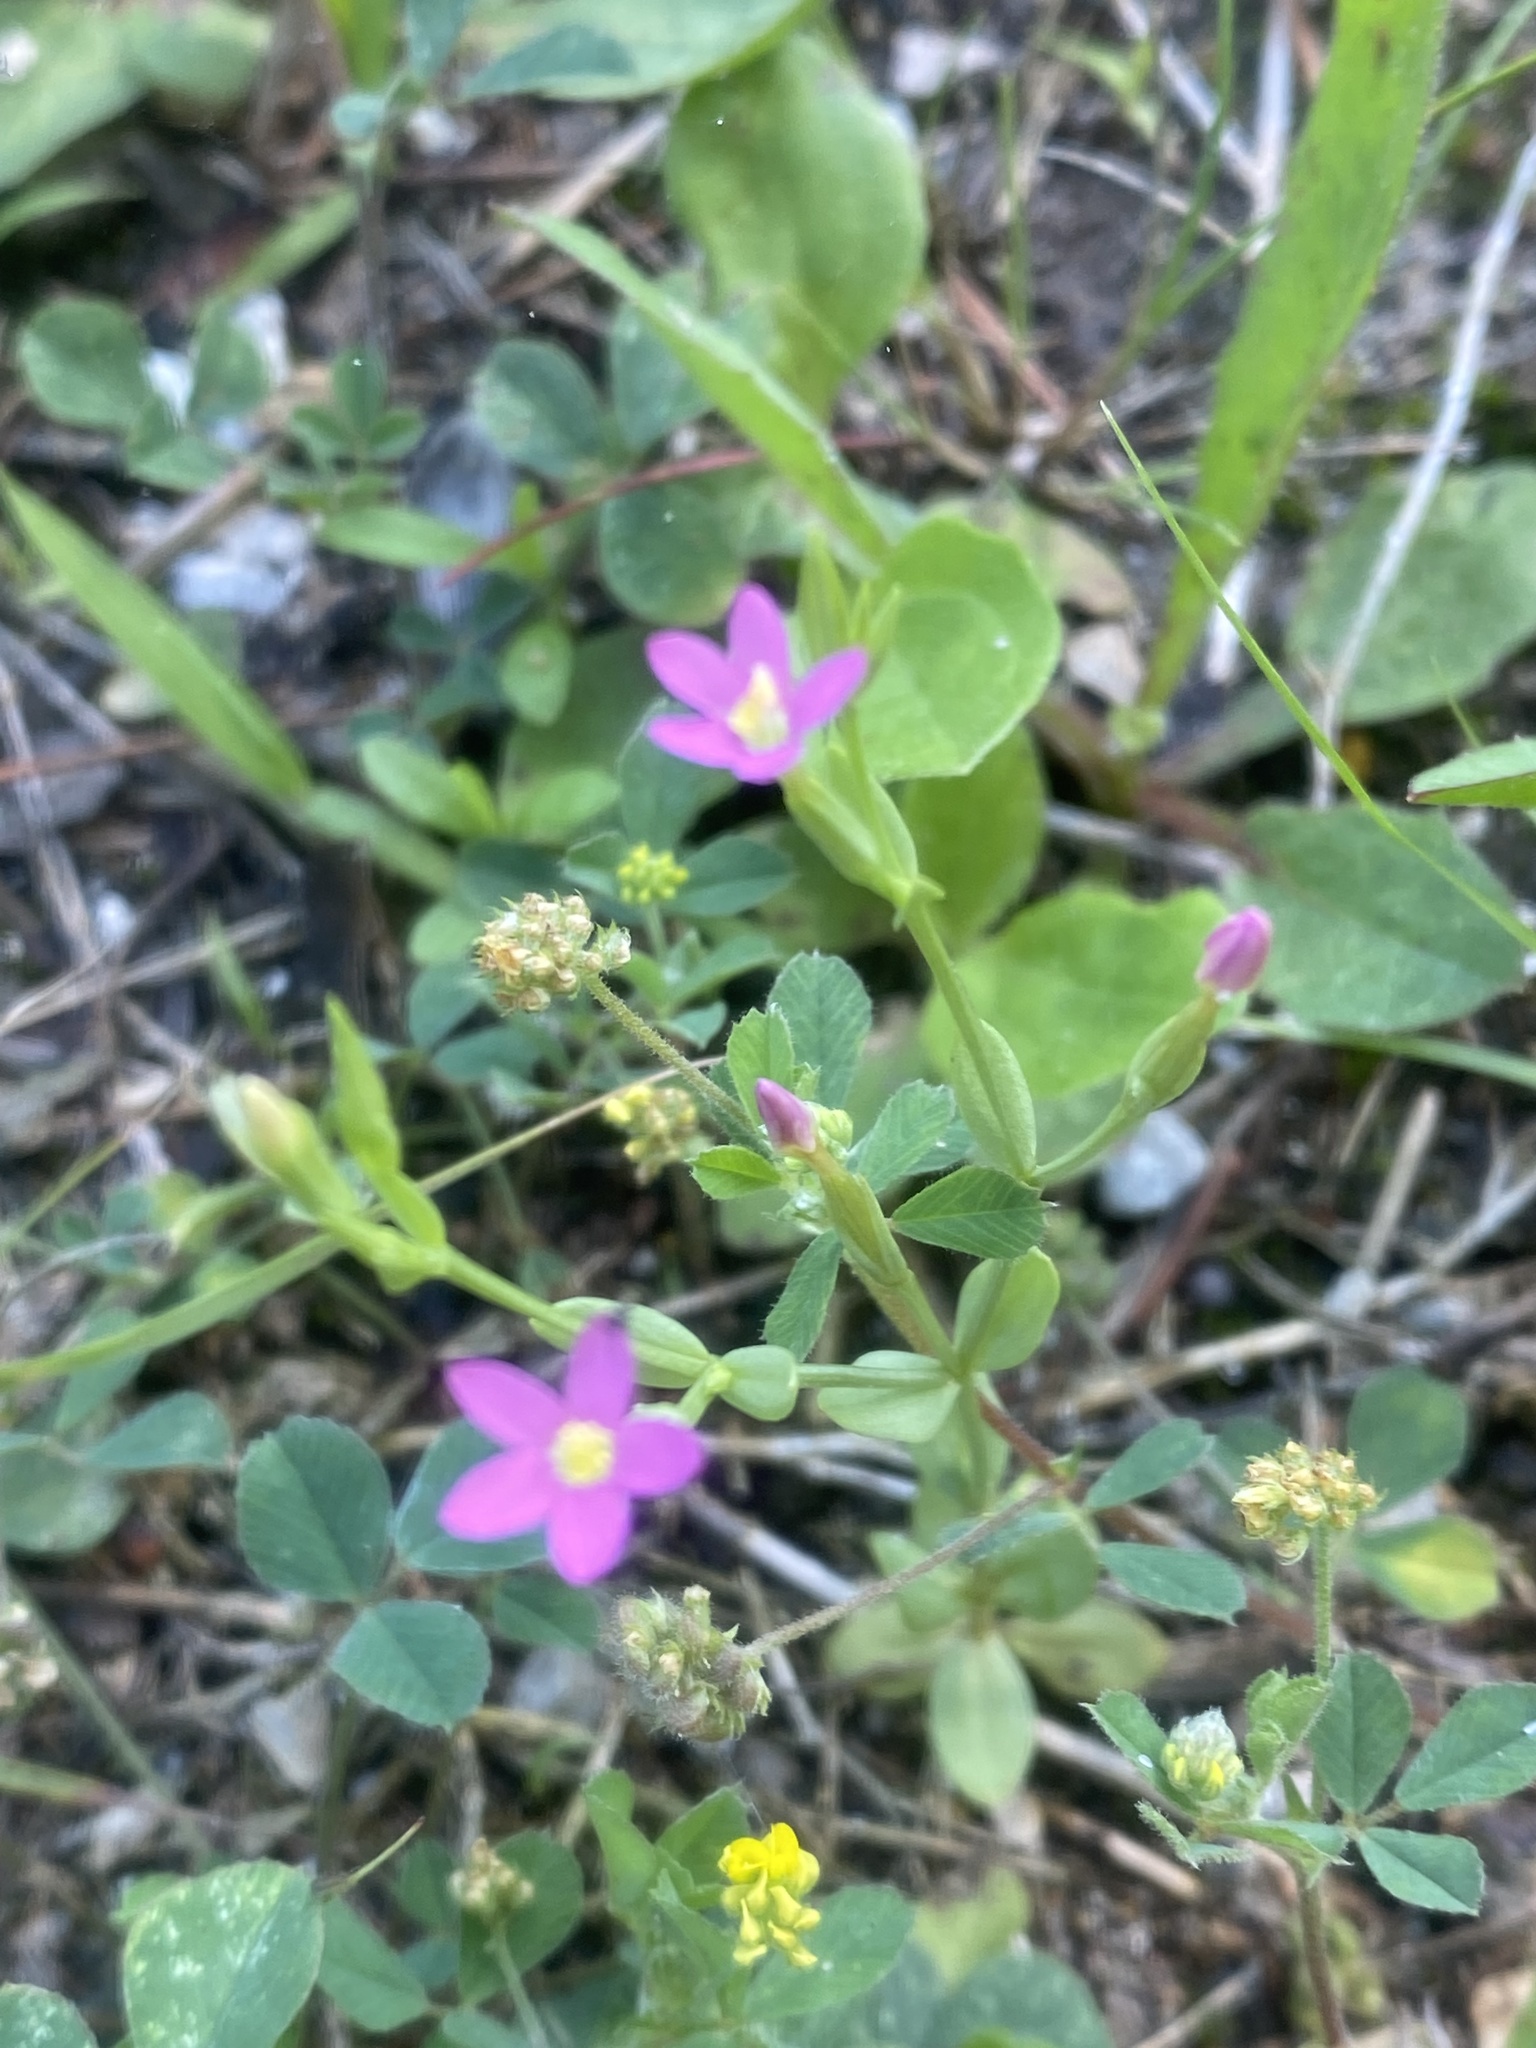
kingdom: Plantae
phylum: Tracheophyta
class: Magnoliopsida
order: Gentianales
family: Gentianaceae
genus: Centaurium
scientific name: Centaurium pulchellum
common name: Lesser centaury
